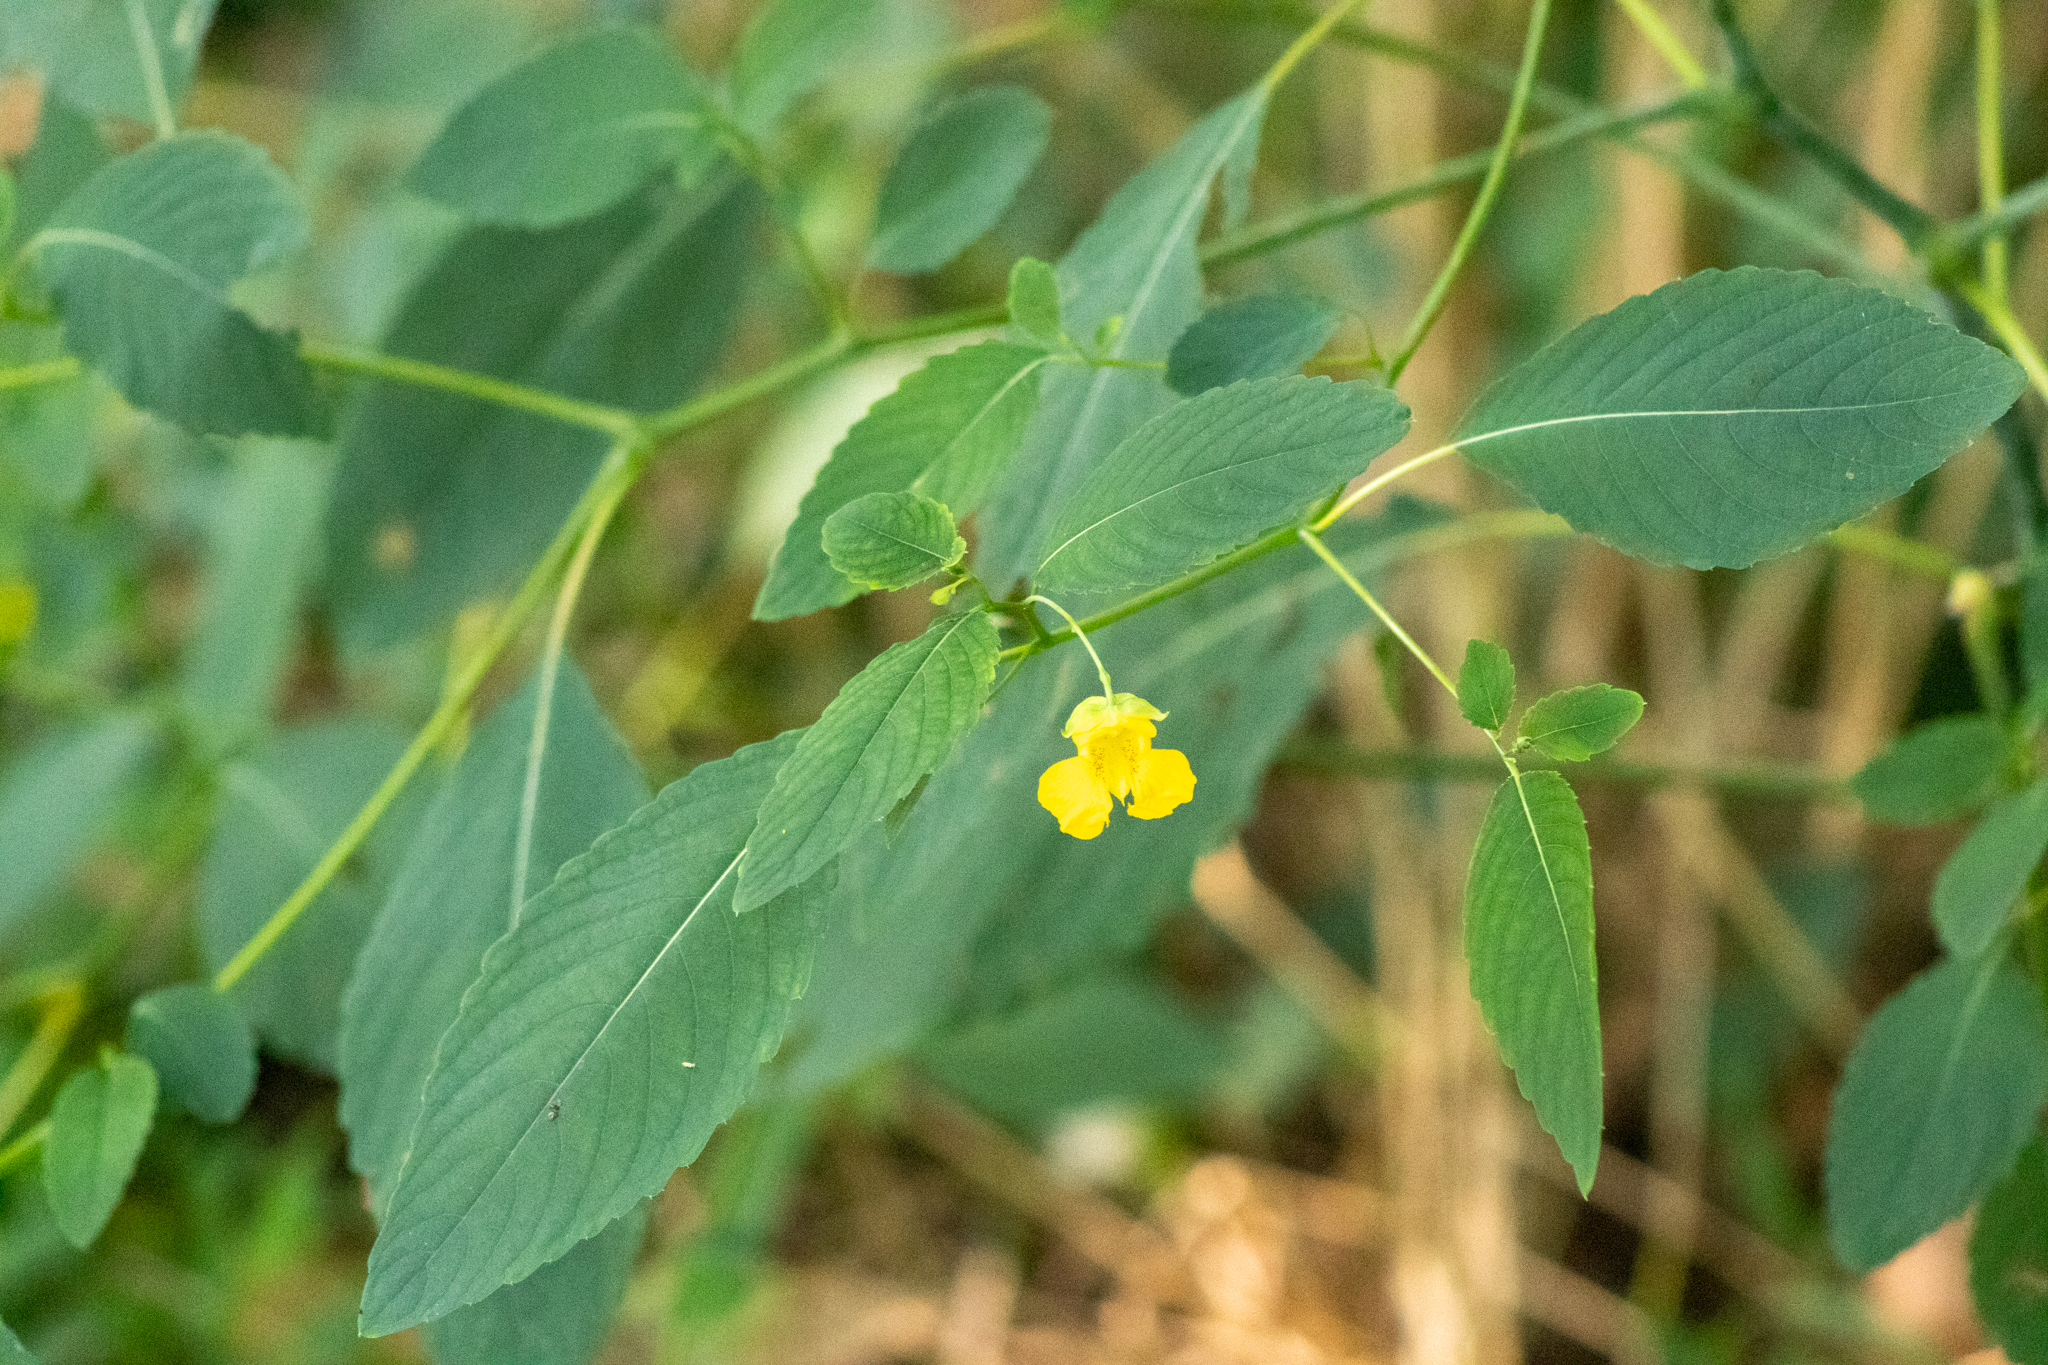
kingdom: Plantae
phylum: Tracheophyta
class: Magnoliopsida
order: Ericales
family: Balsaminaceae
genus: Impatiens
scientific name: Impatiens pallida
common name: Pale snapweed
